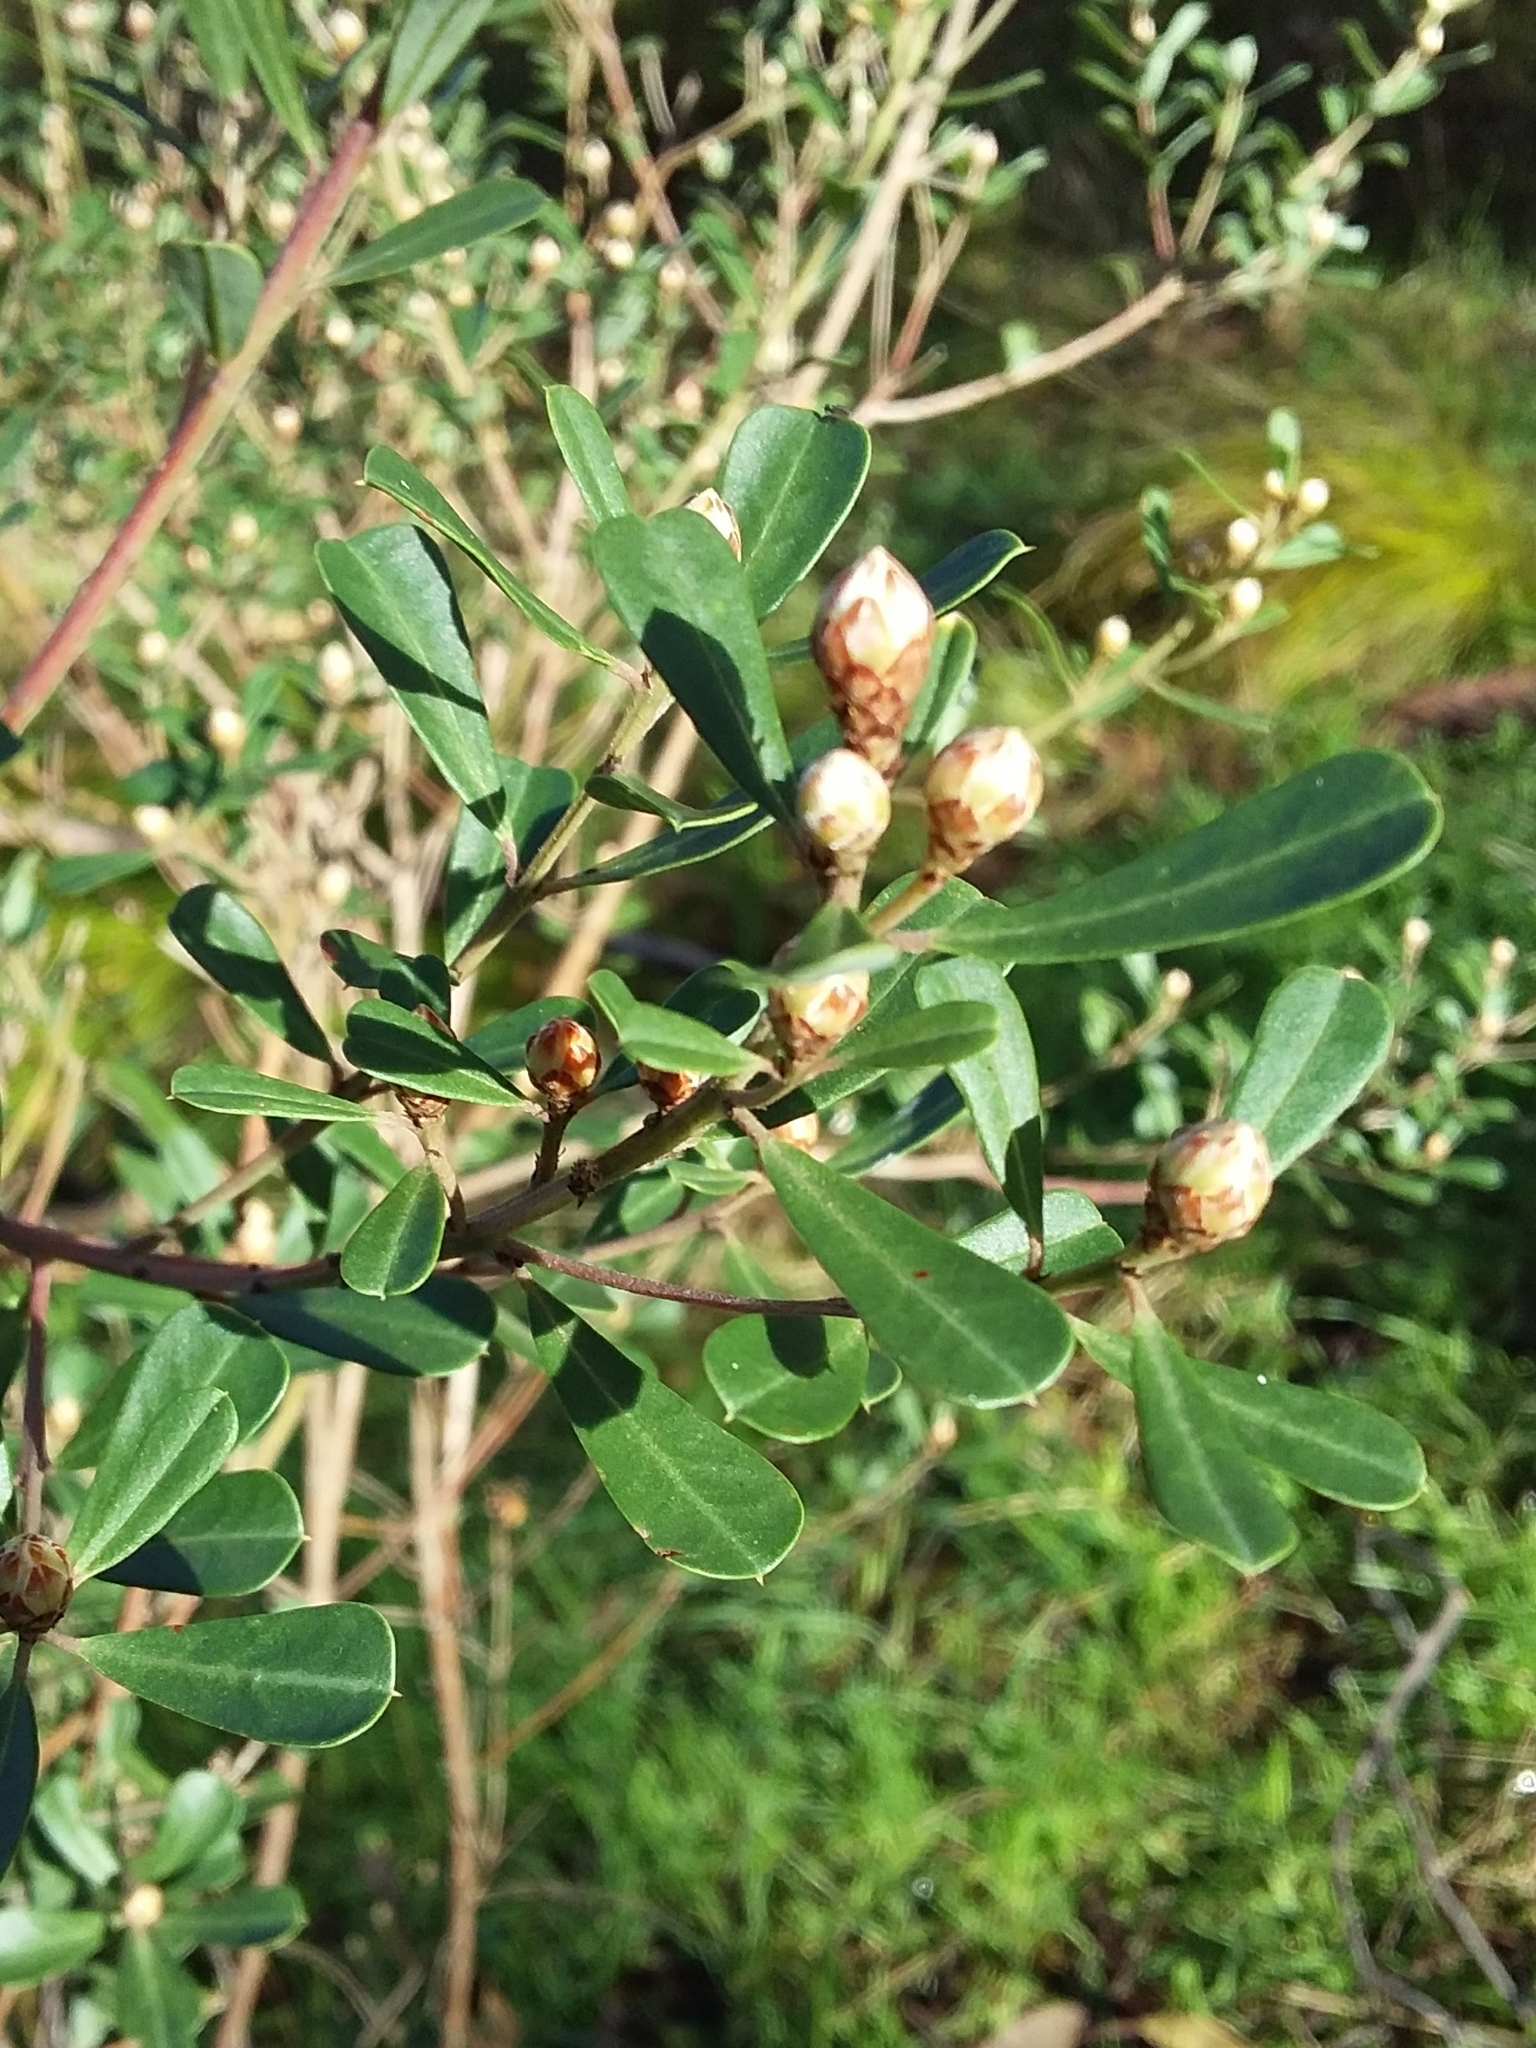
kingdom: Plantae
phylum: Tracheophyta
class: Magnoliopsida
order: Fabales
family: Fabaceae
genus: Pultenaea
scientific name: Pultenaea daphnoides
